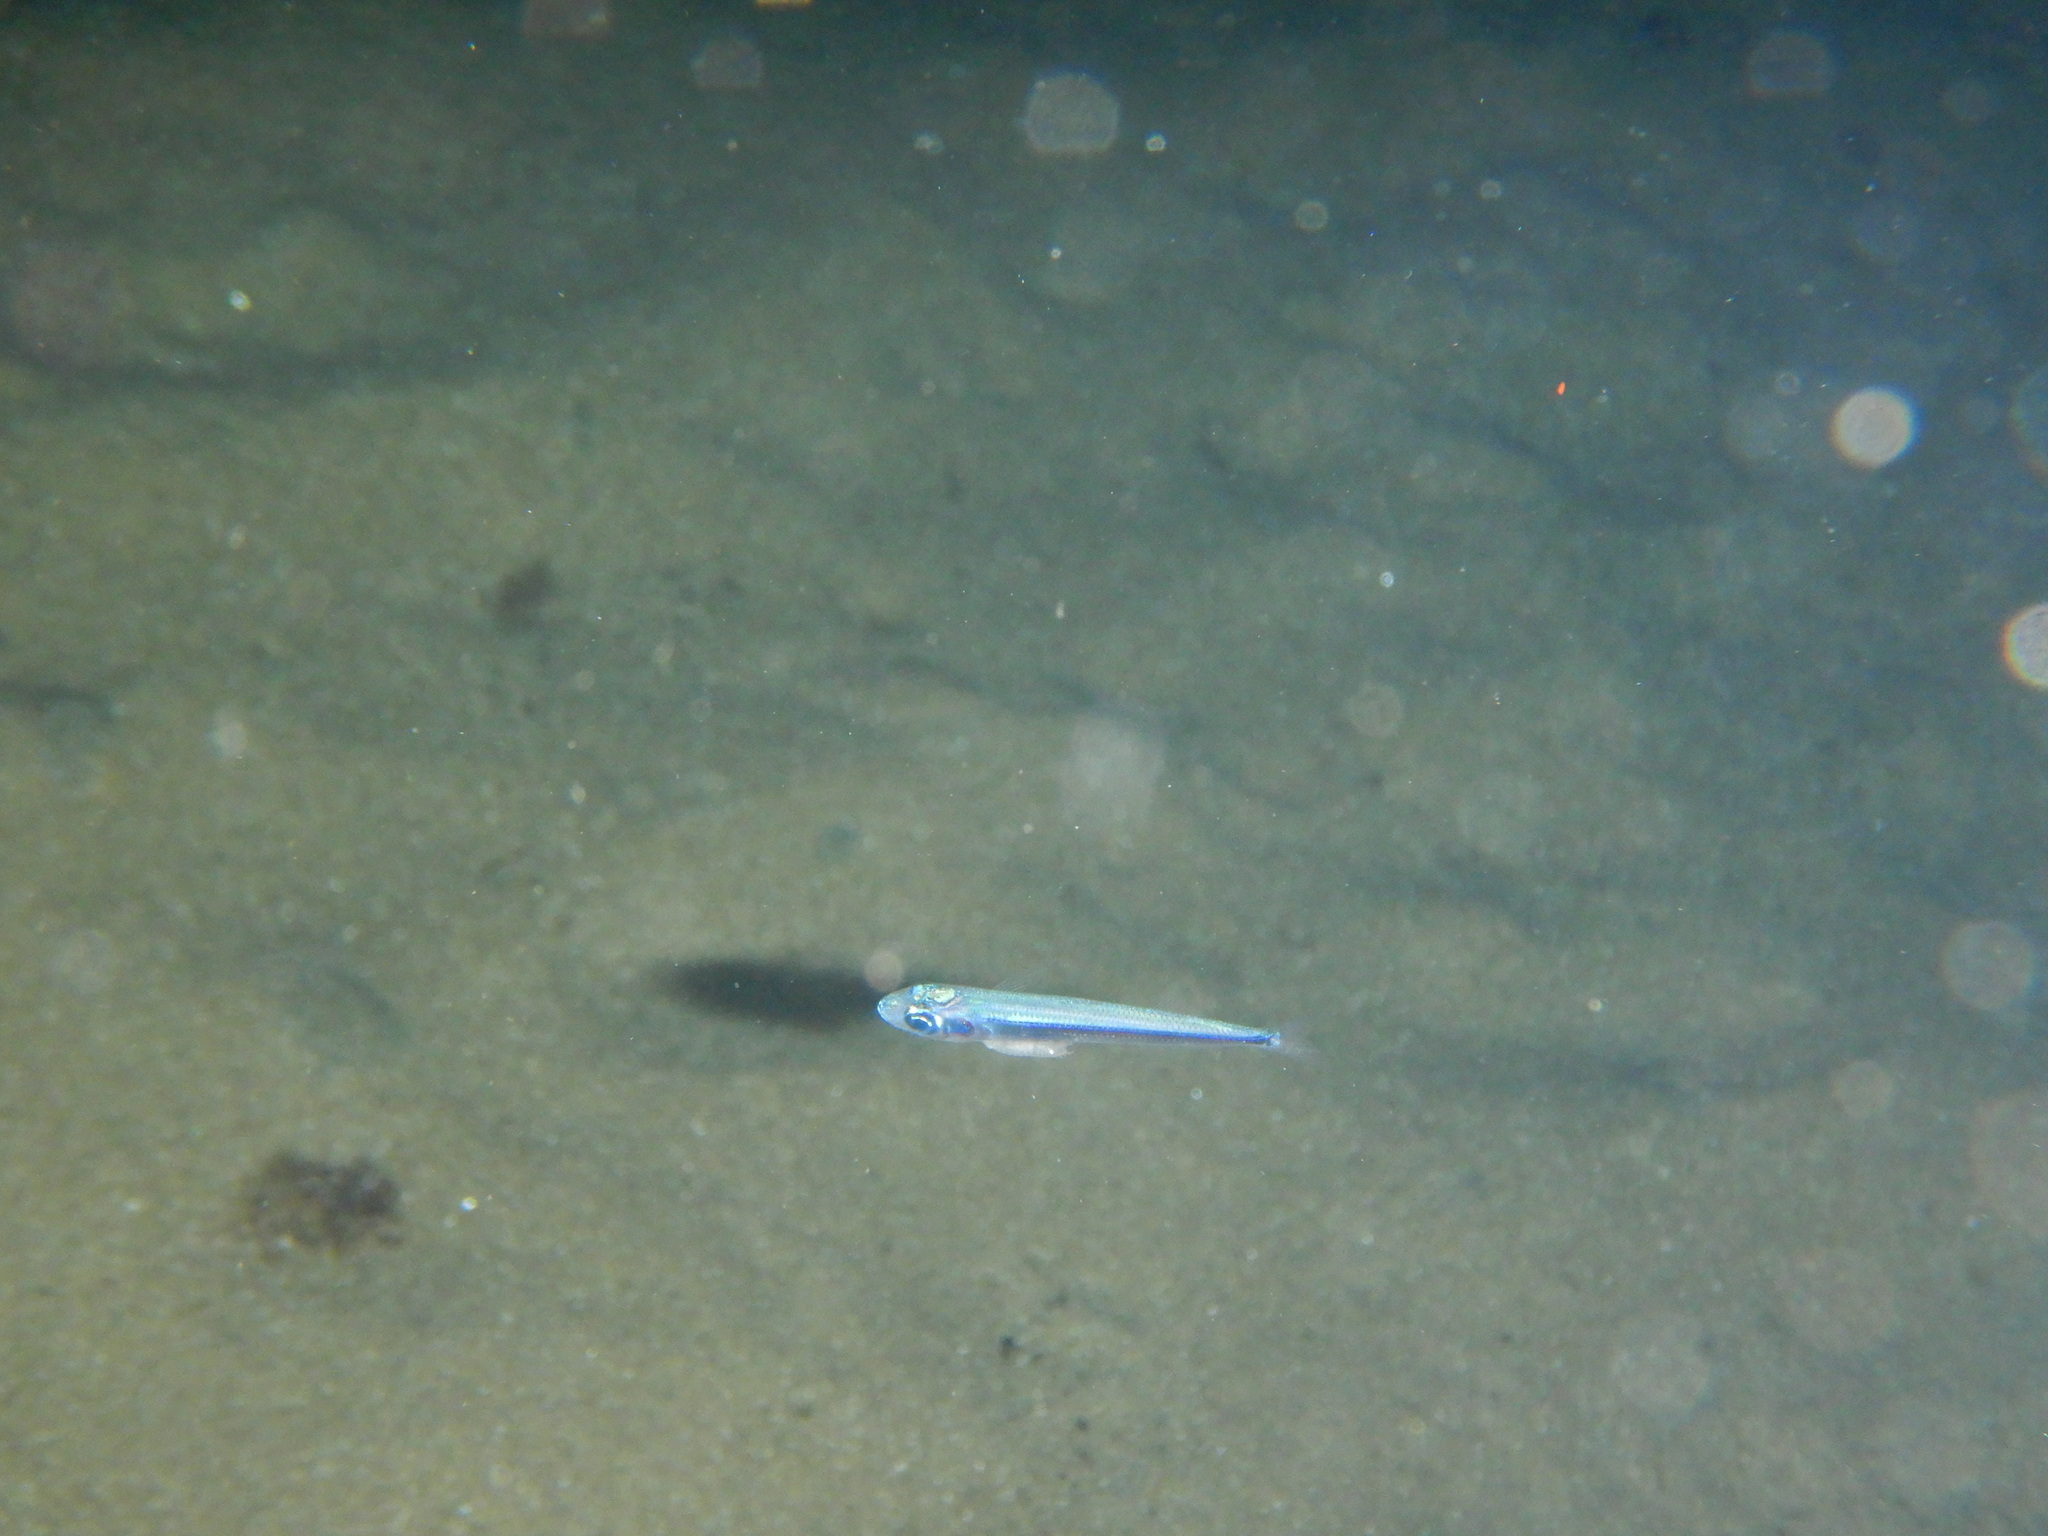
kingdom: Animalia
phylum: Chordata
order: Atheriniformes
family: Atherinidae
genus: Atherina
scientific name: Atherina
